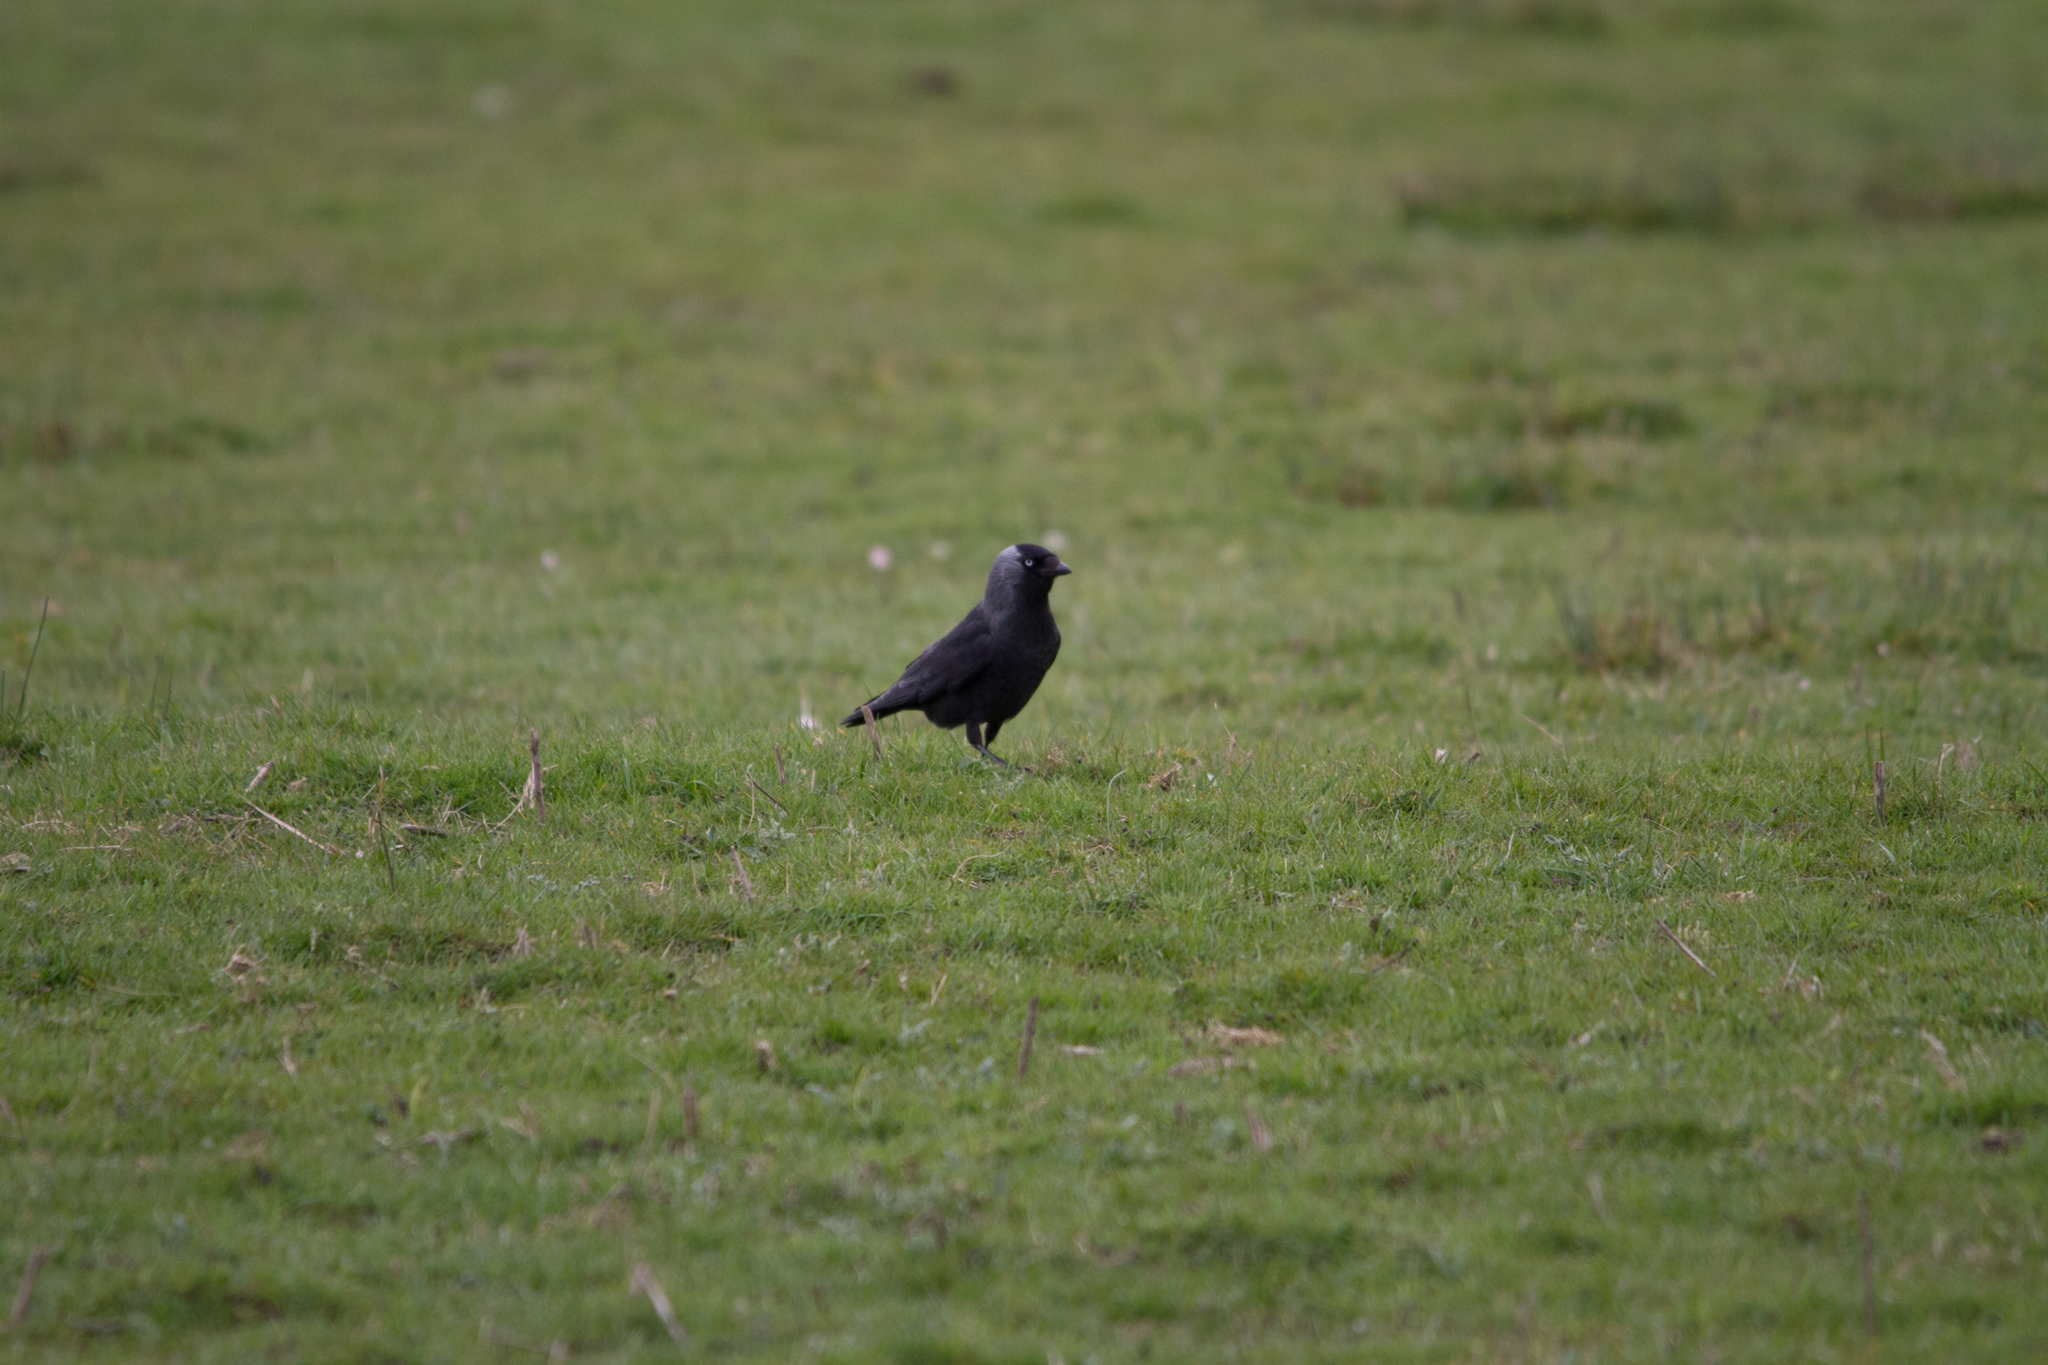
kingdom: Animalia
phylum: Chordata
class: Aves
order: Passeriformes
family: Corvidae
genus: Coloeus
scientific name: Coloeus monedula
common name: Western jackdaw
